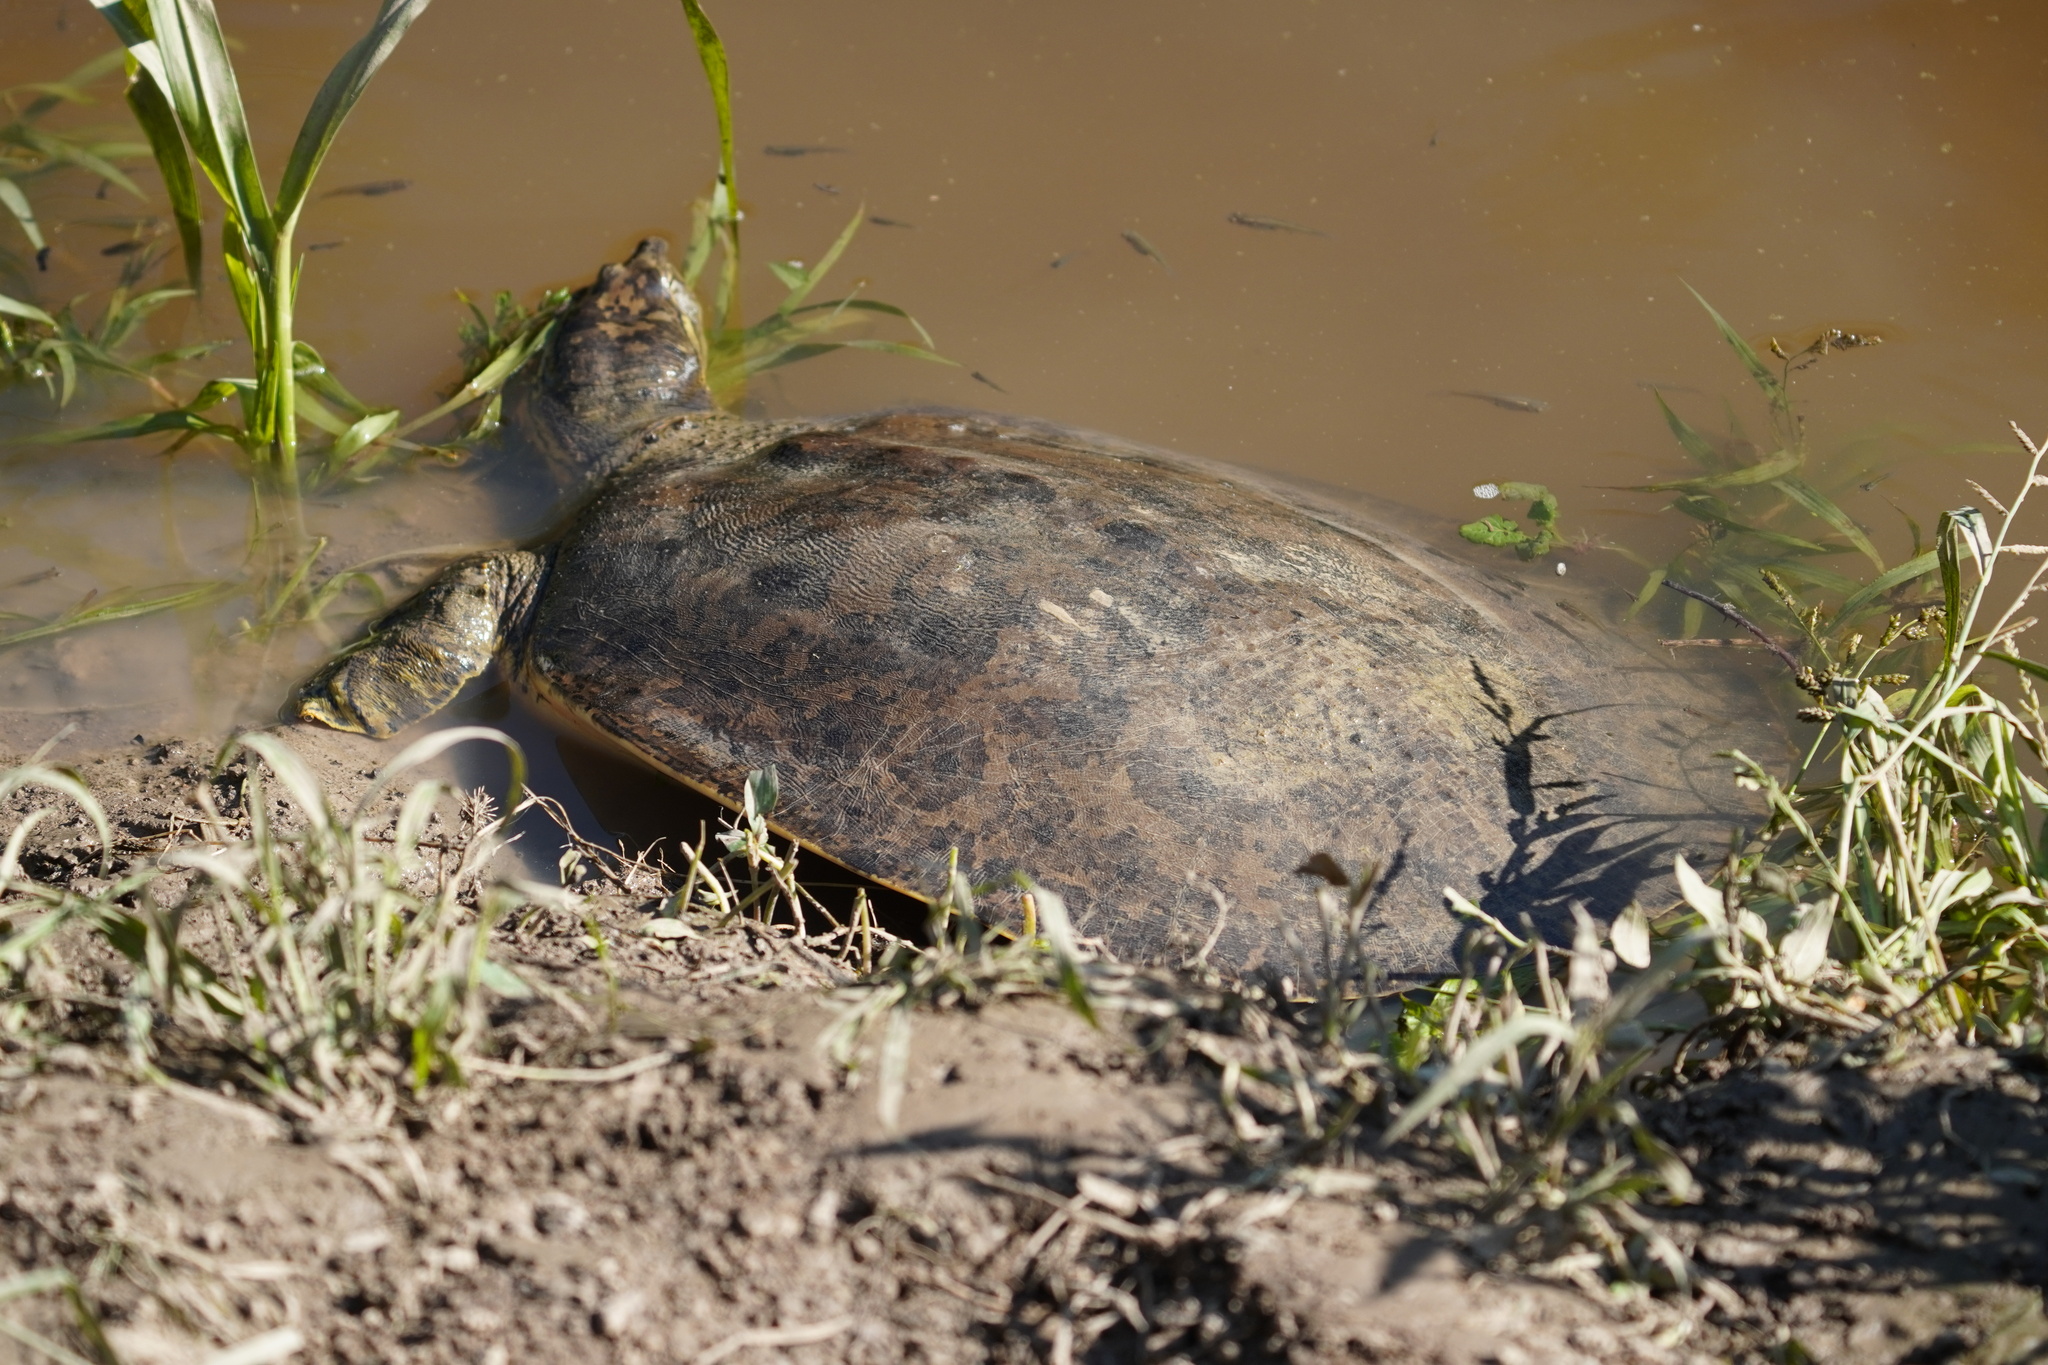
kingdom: Animalia
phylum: Chordata
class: Testudines
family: Trionychidae
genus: Apalone
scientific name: Apalone spinifera
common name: Spiny softshell turtle
